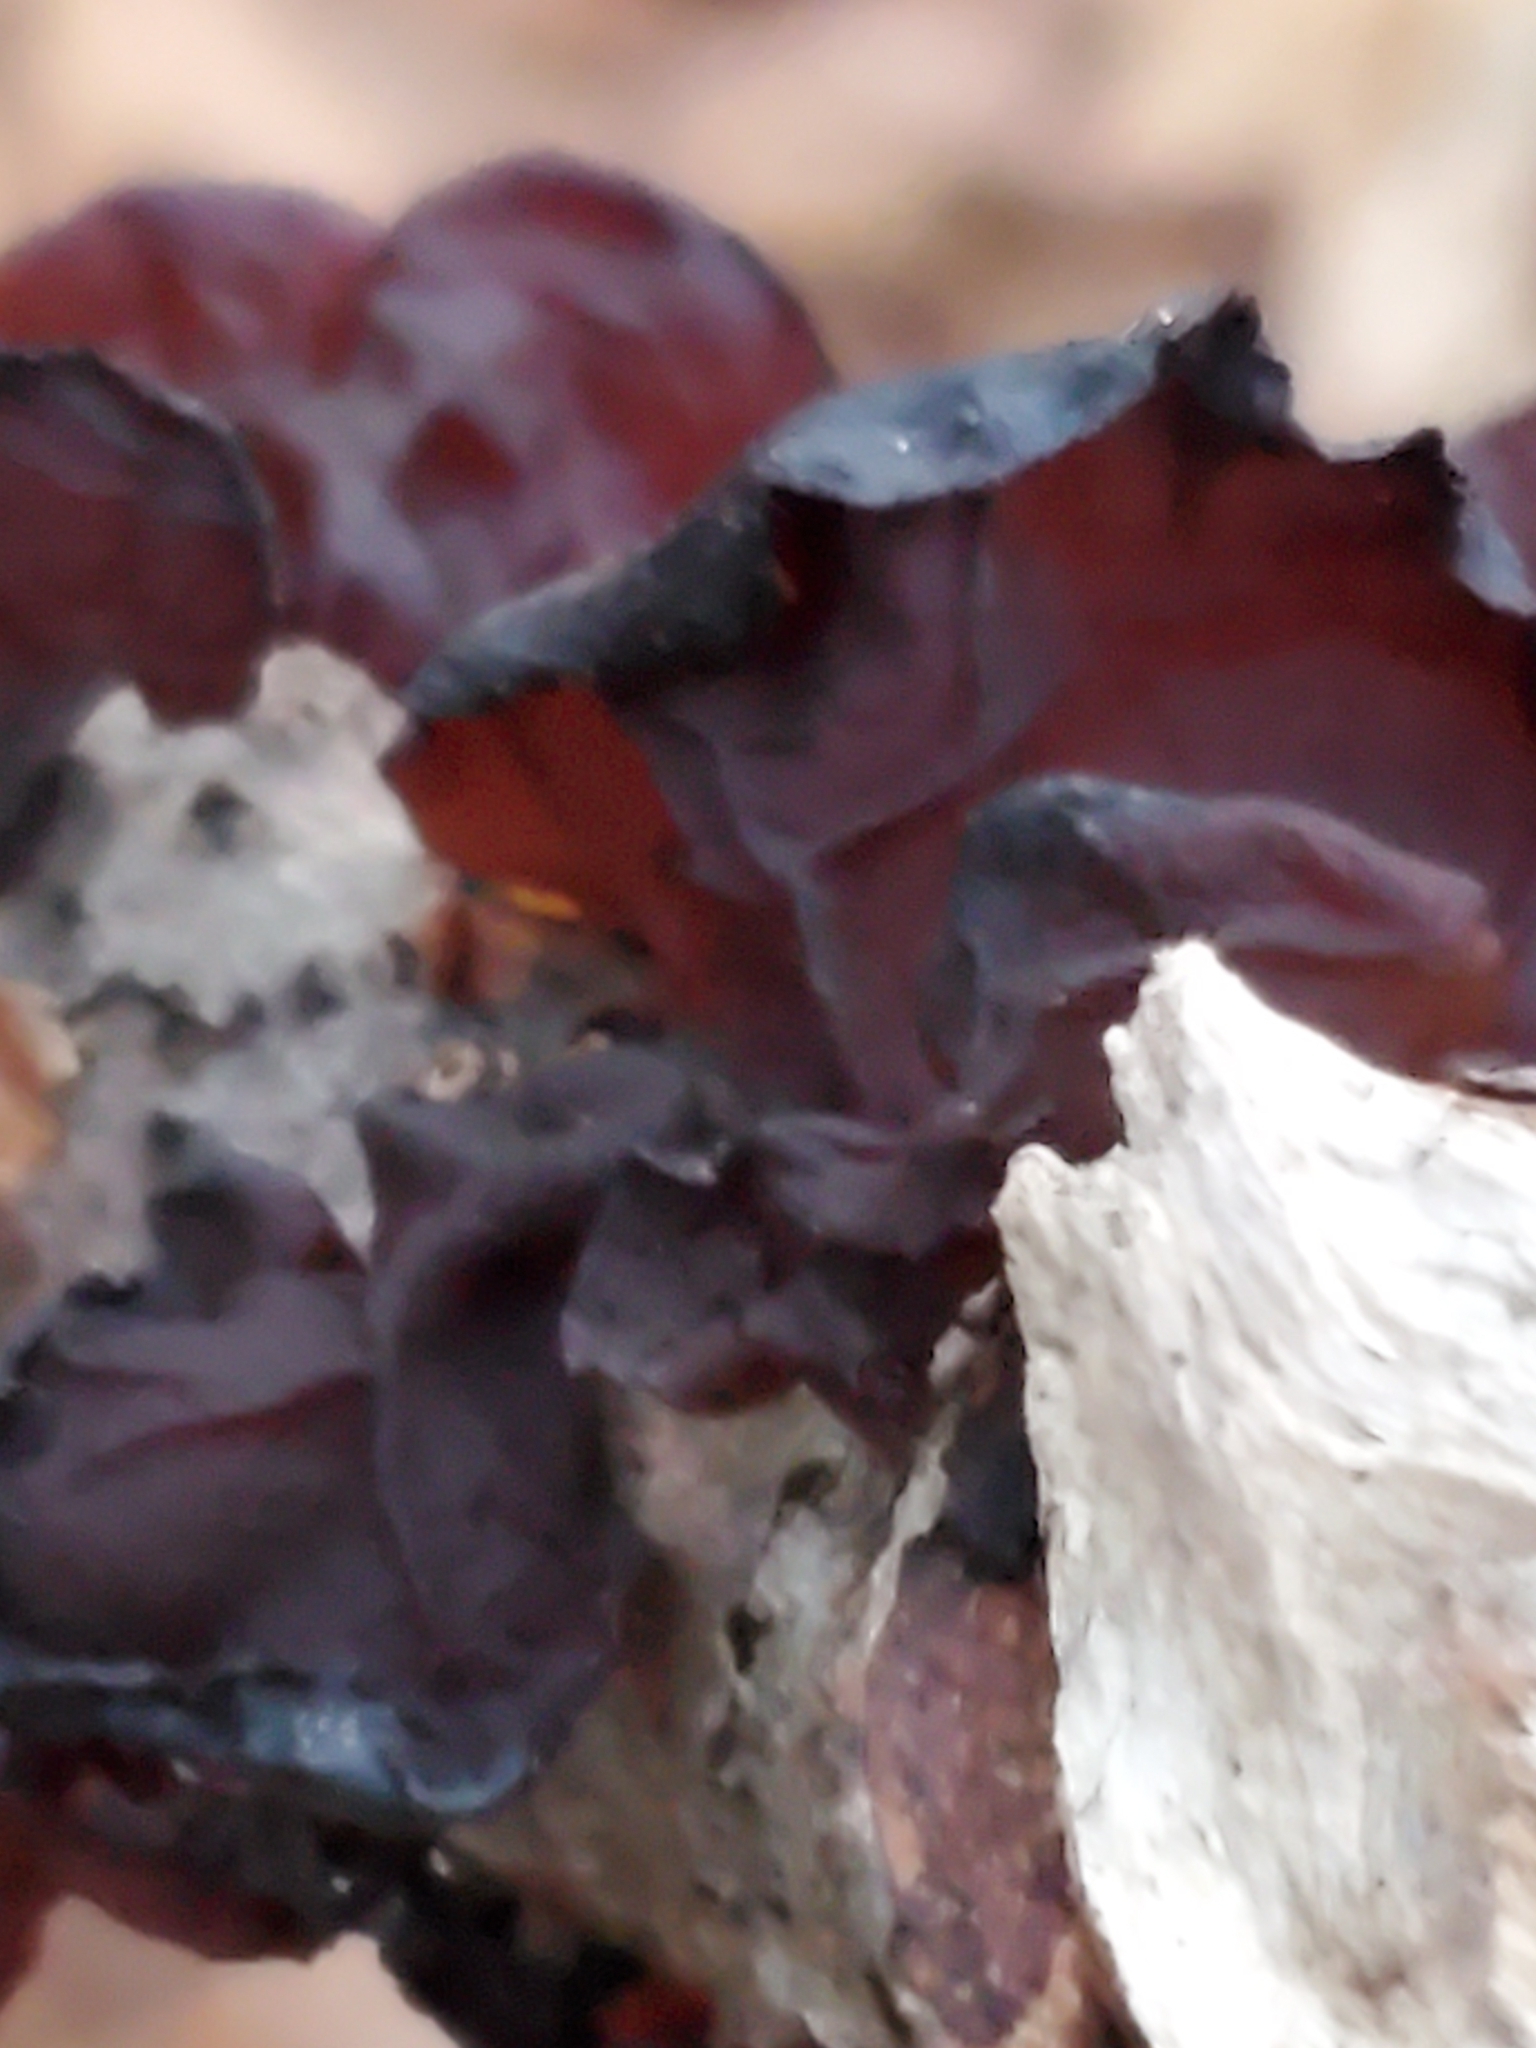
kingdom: Fungi
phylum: Basidiomycota
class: Agaricomycetes
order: Auriculariales
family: Auriculariaceae
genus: Exidia
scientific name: Exidia
